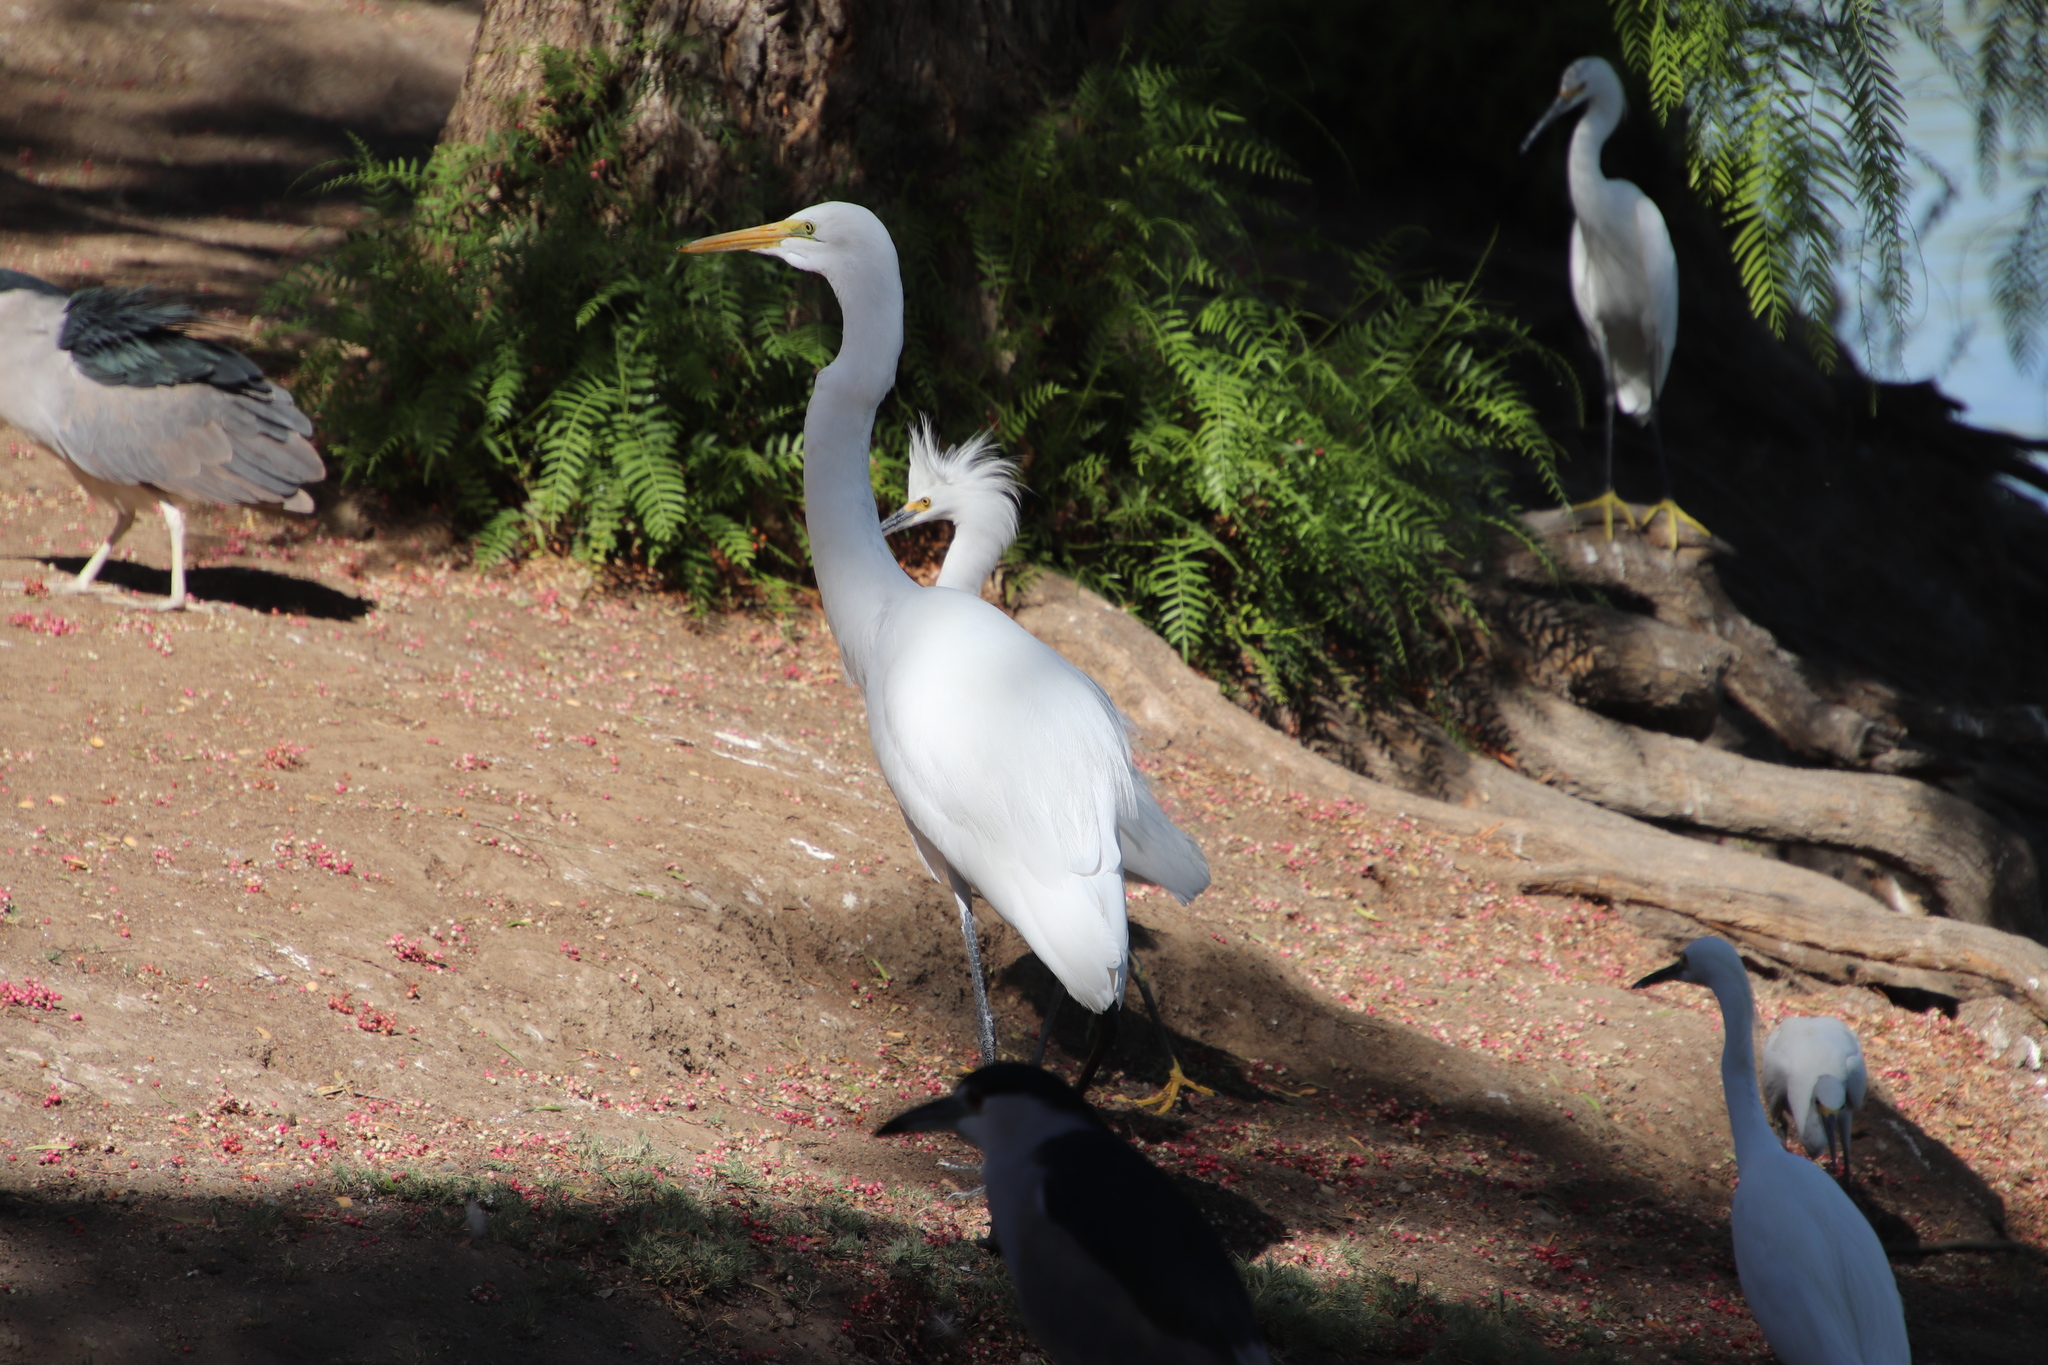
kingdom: Animalia
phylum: Chordata
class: Aves
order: Pelecaniformes
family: Ardeidae
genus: Ardea
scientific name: Ardea alba
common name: Great egret
